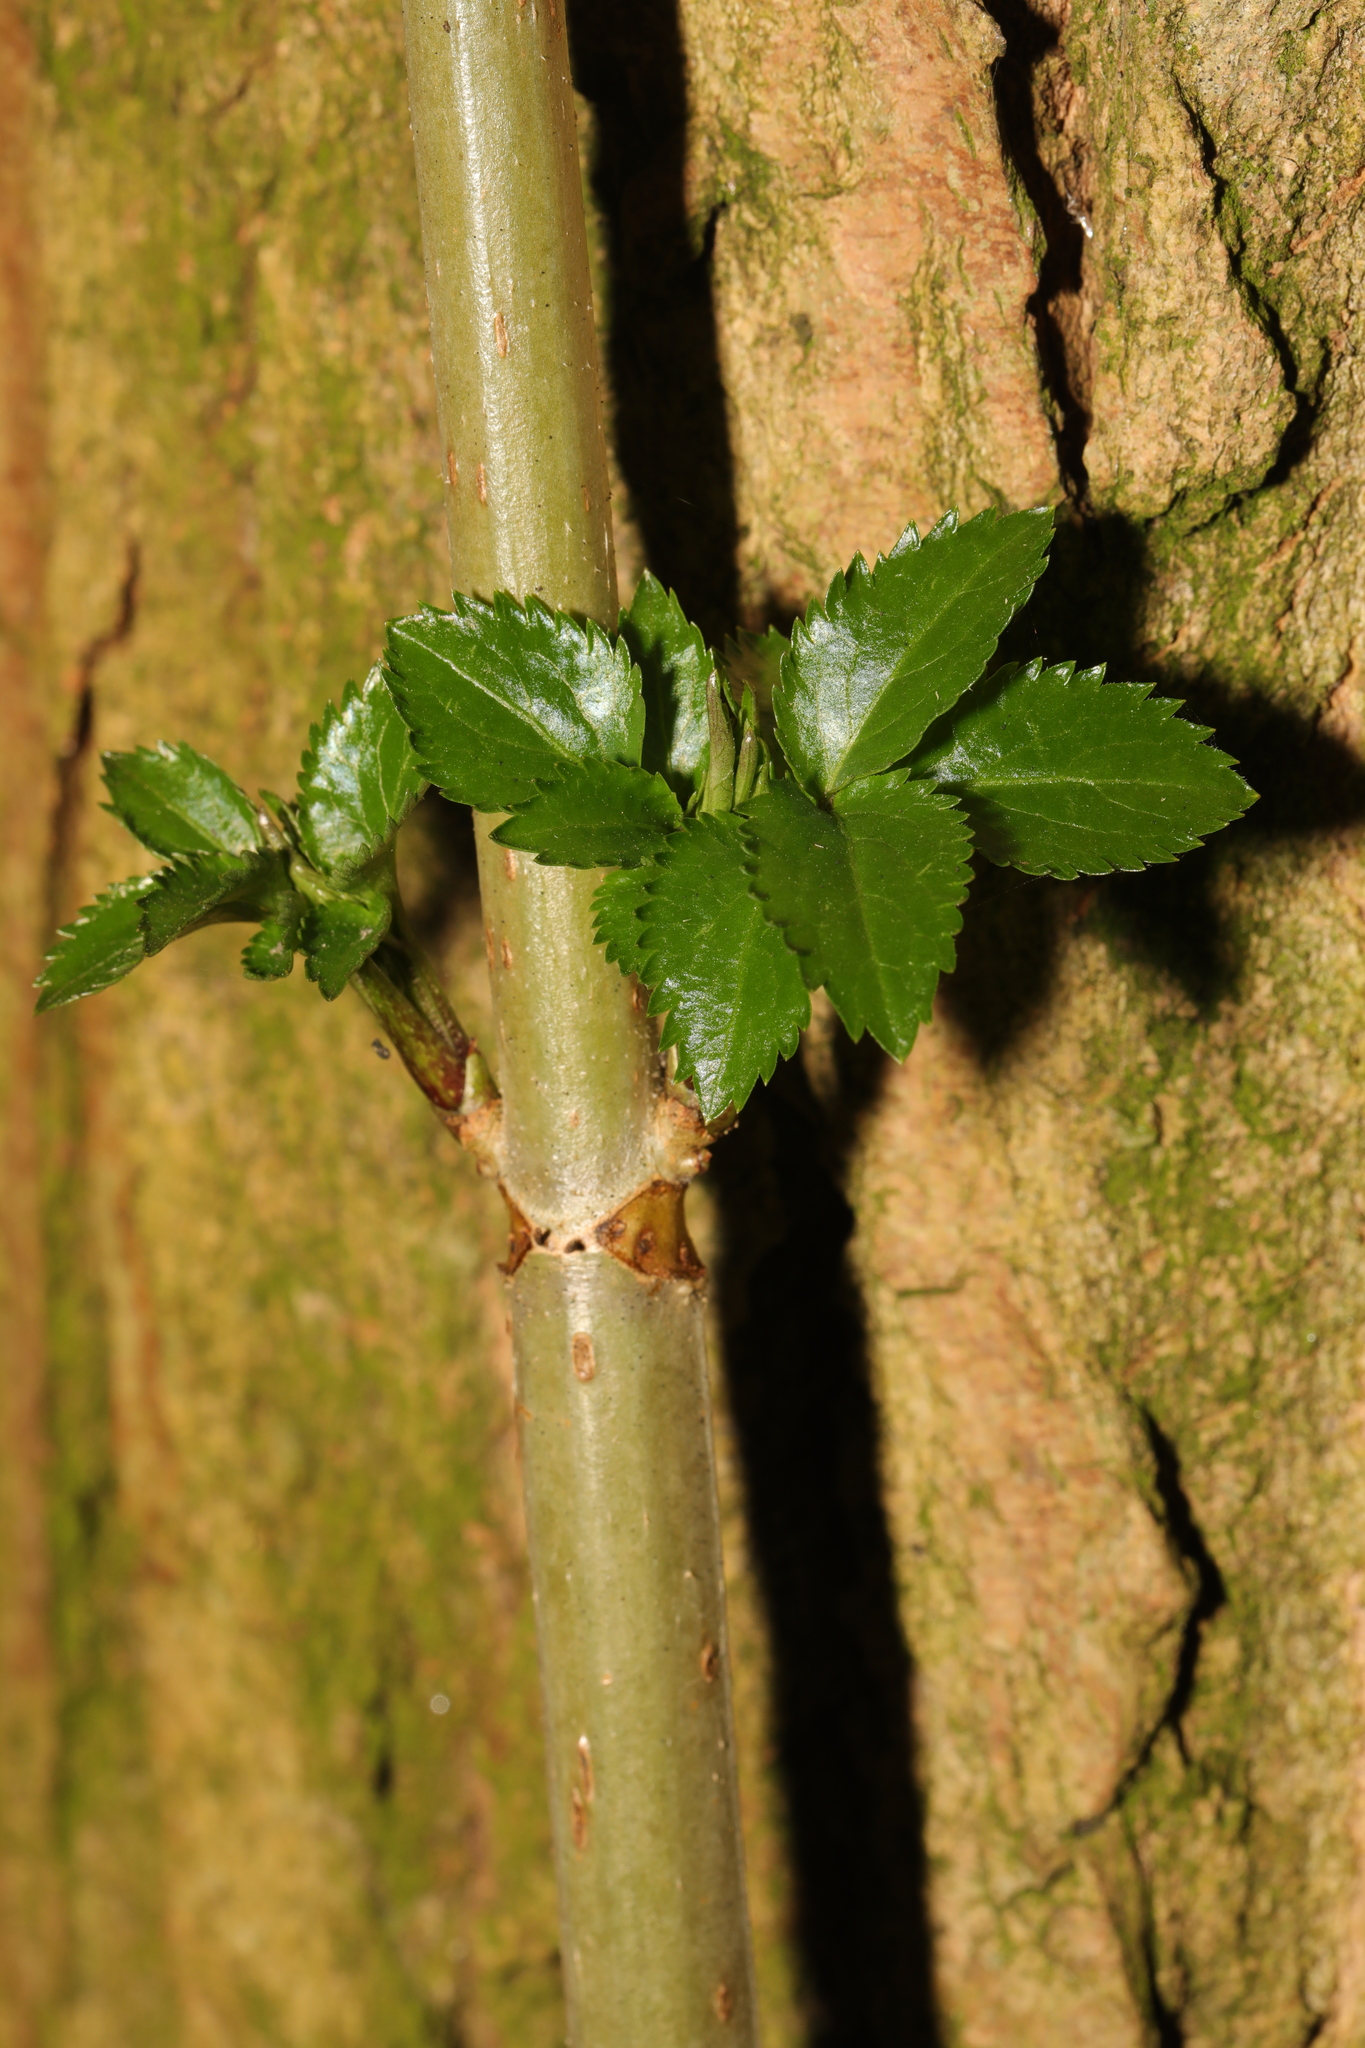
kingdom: Plantae
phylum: Tracheophyta
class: Magnoliopsida
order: Dipsacales
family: Viburnaceae
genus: Sambucus
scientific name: Sambucus nigra
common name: Elder
